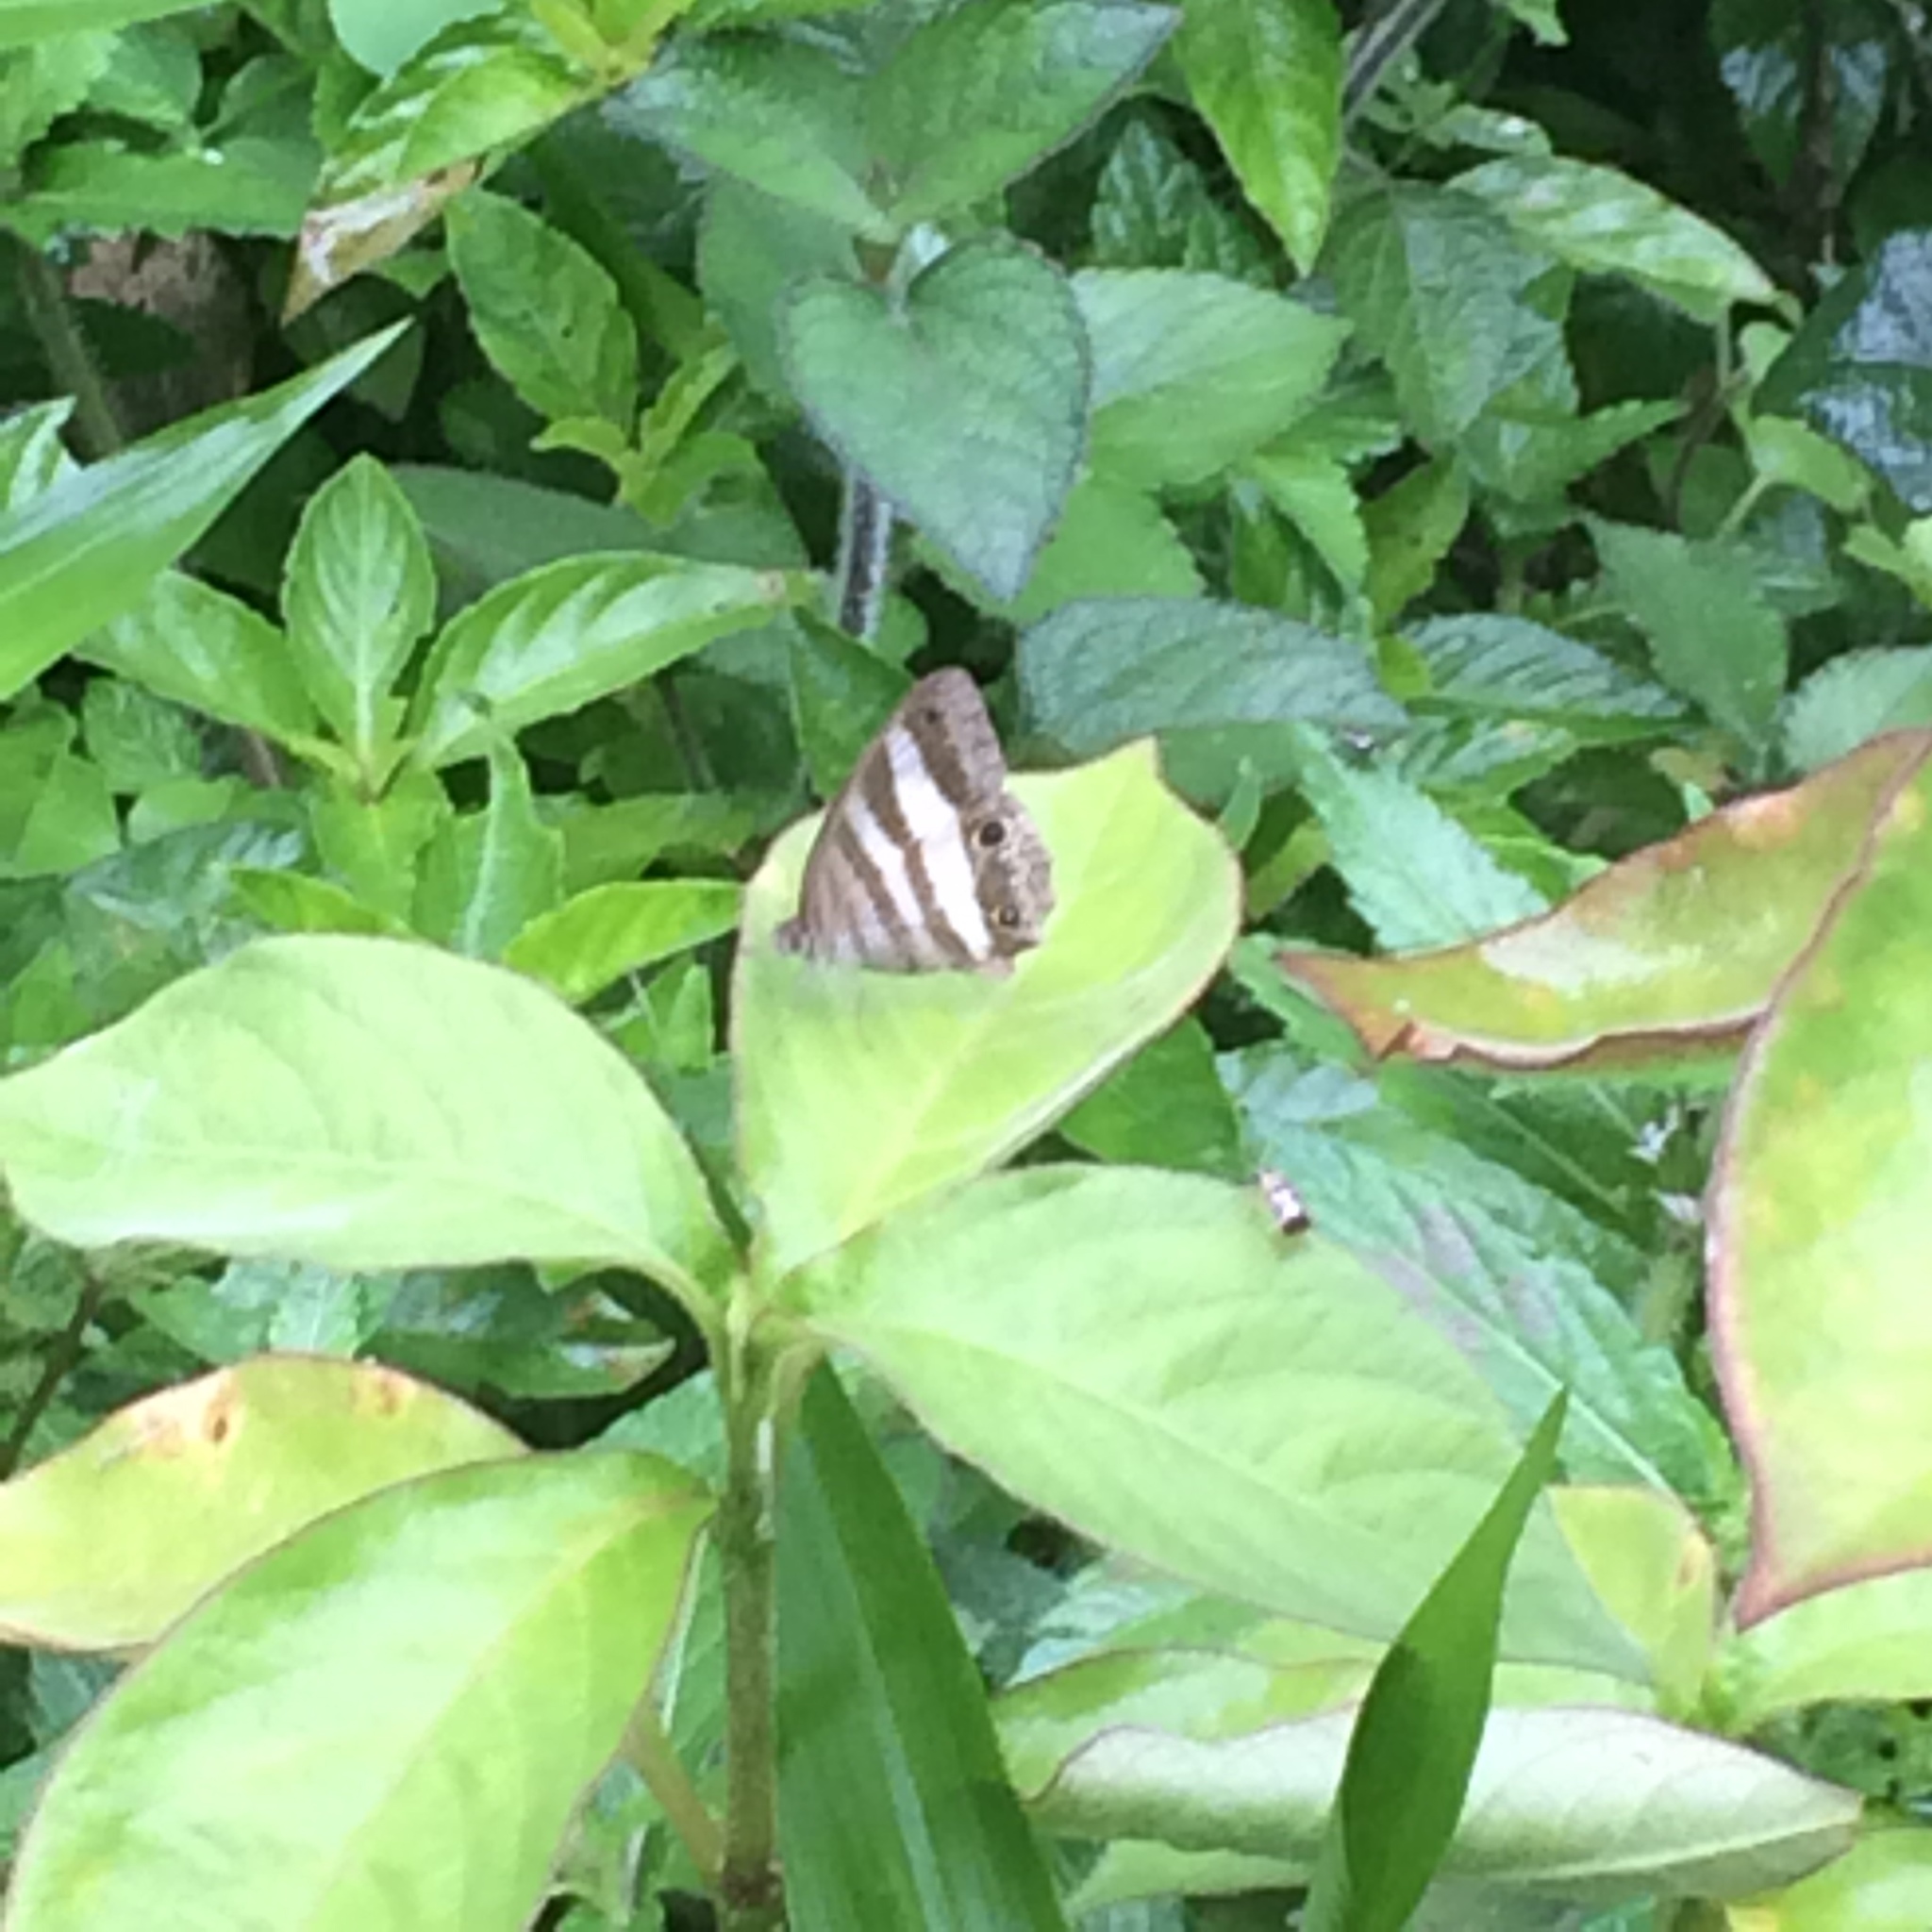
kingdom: Animalia
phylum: Arthropoda
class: Insecta
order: Lepidoptera
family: Nymphalidae
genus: Pareuptychia
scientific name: Pareuptychia hesione
